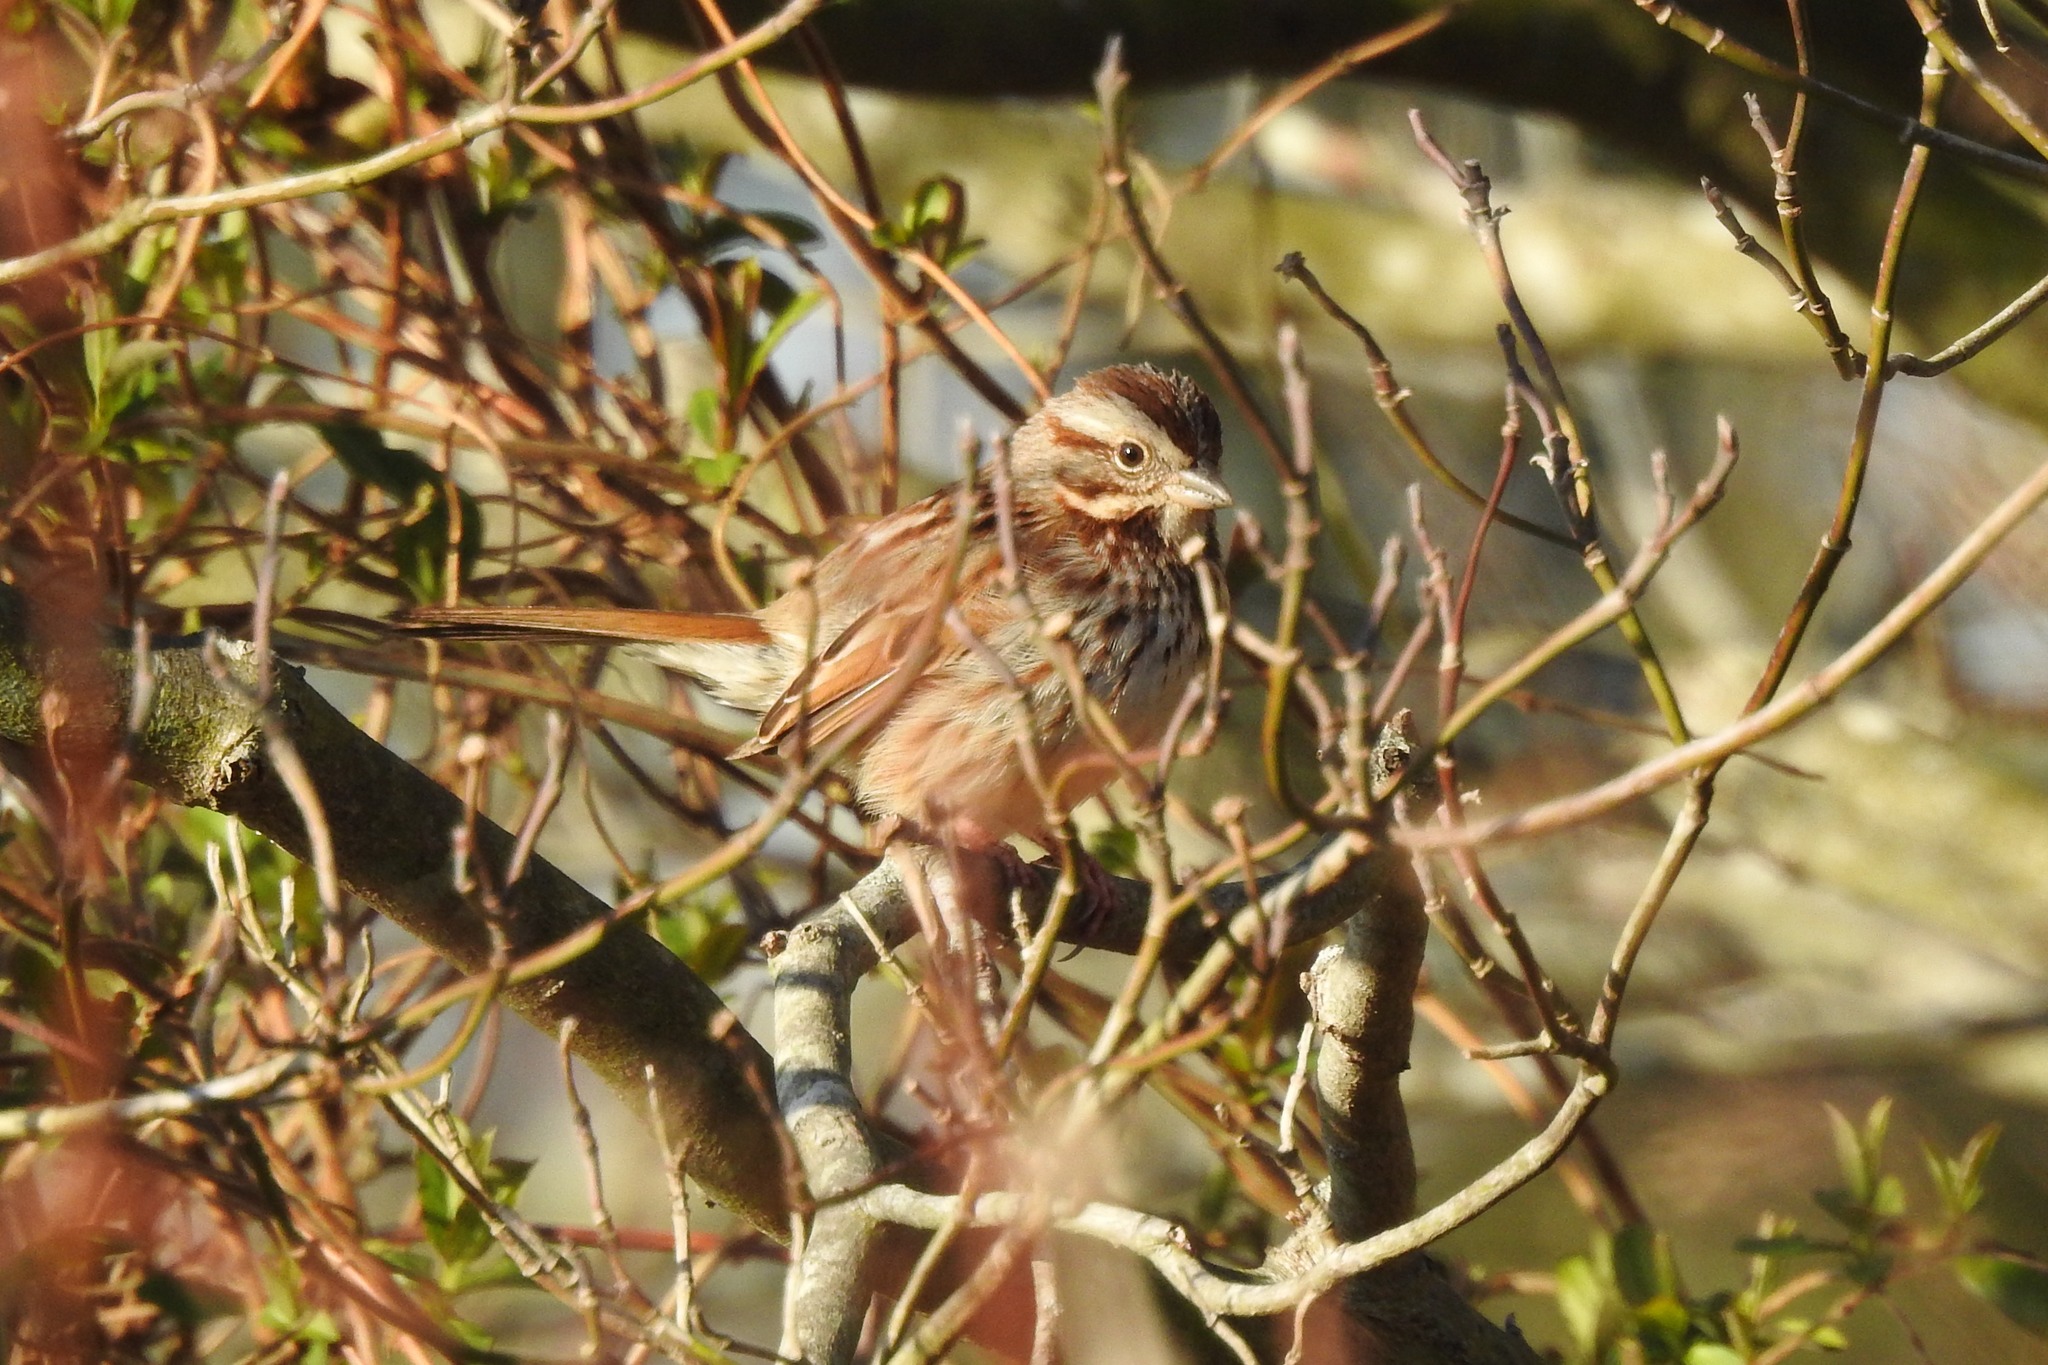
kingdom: Animalia
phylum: Chordata
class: Aves
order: Passeriformes
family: Passerellidae
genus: Melospiza
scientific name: Melospiza melodia
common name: Song sparrow
